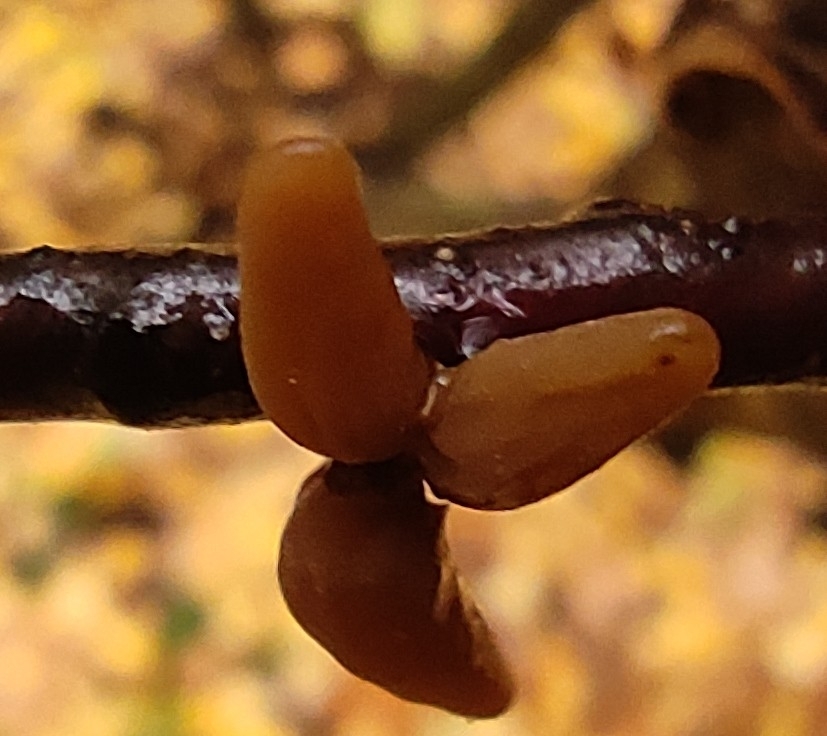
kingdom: Fungi
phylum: Basidiomycota
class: Agaricomycetes
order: Agaricales
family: Typhulaceae
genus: Typhula
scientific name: Typhula fistulosa
